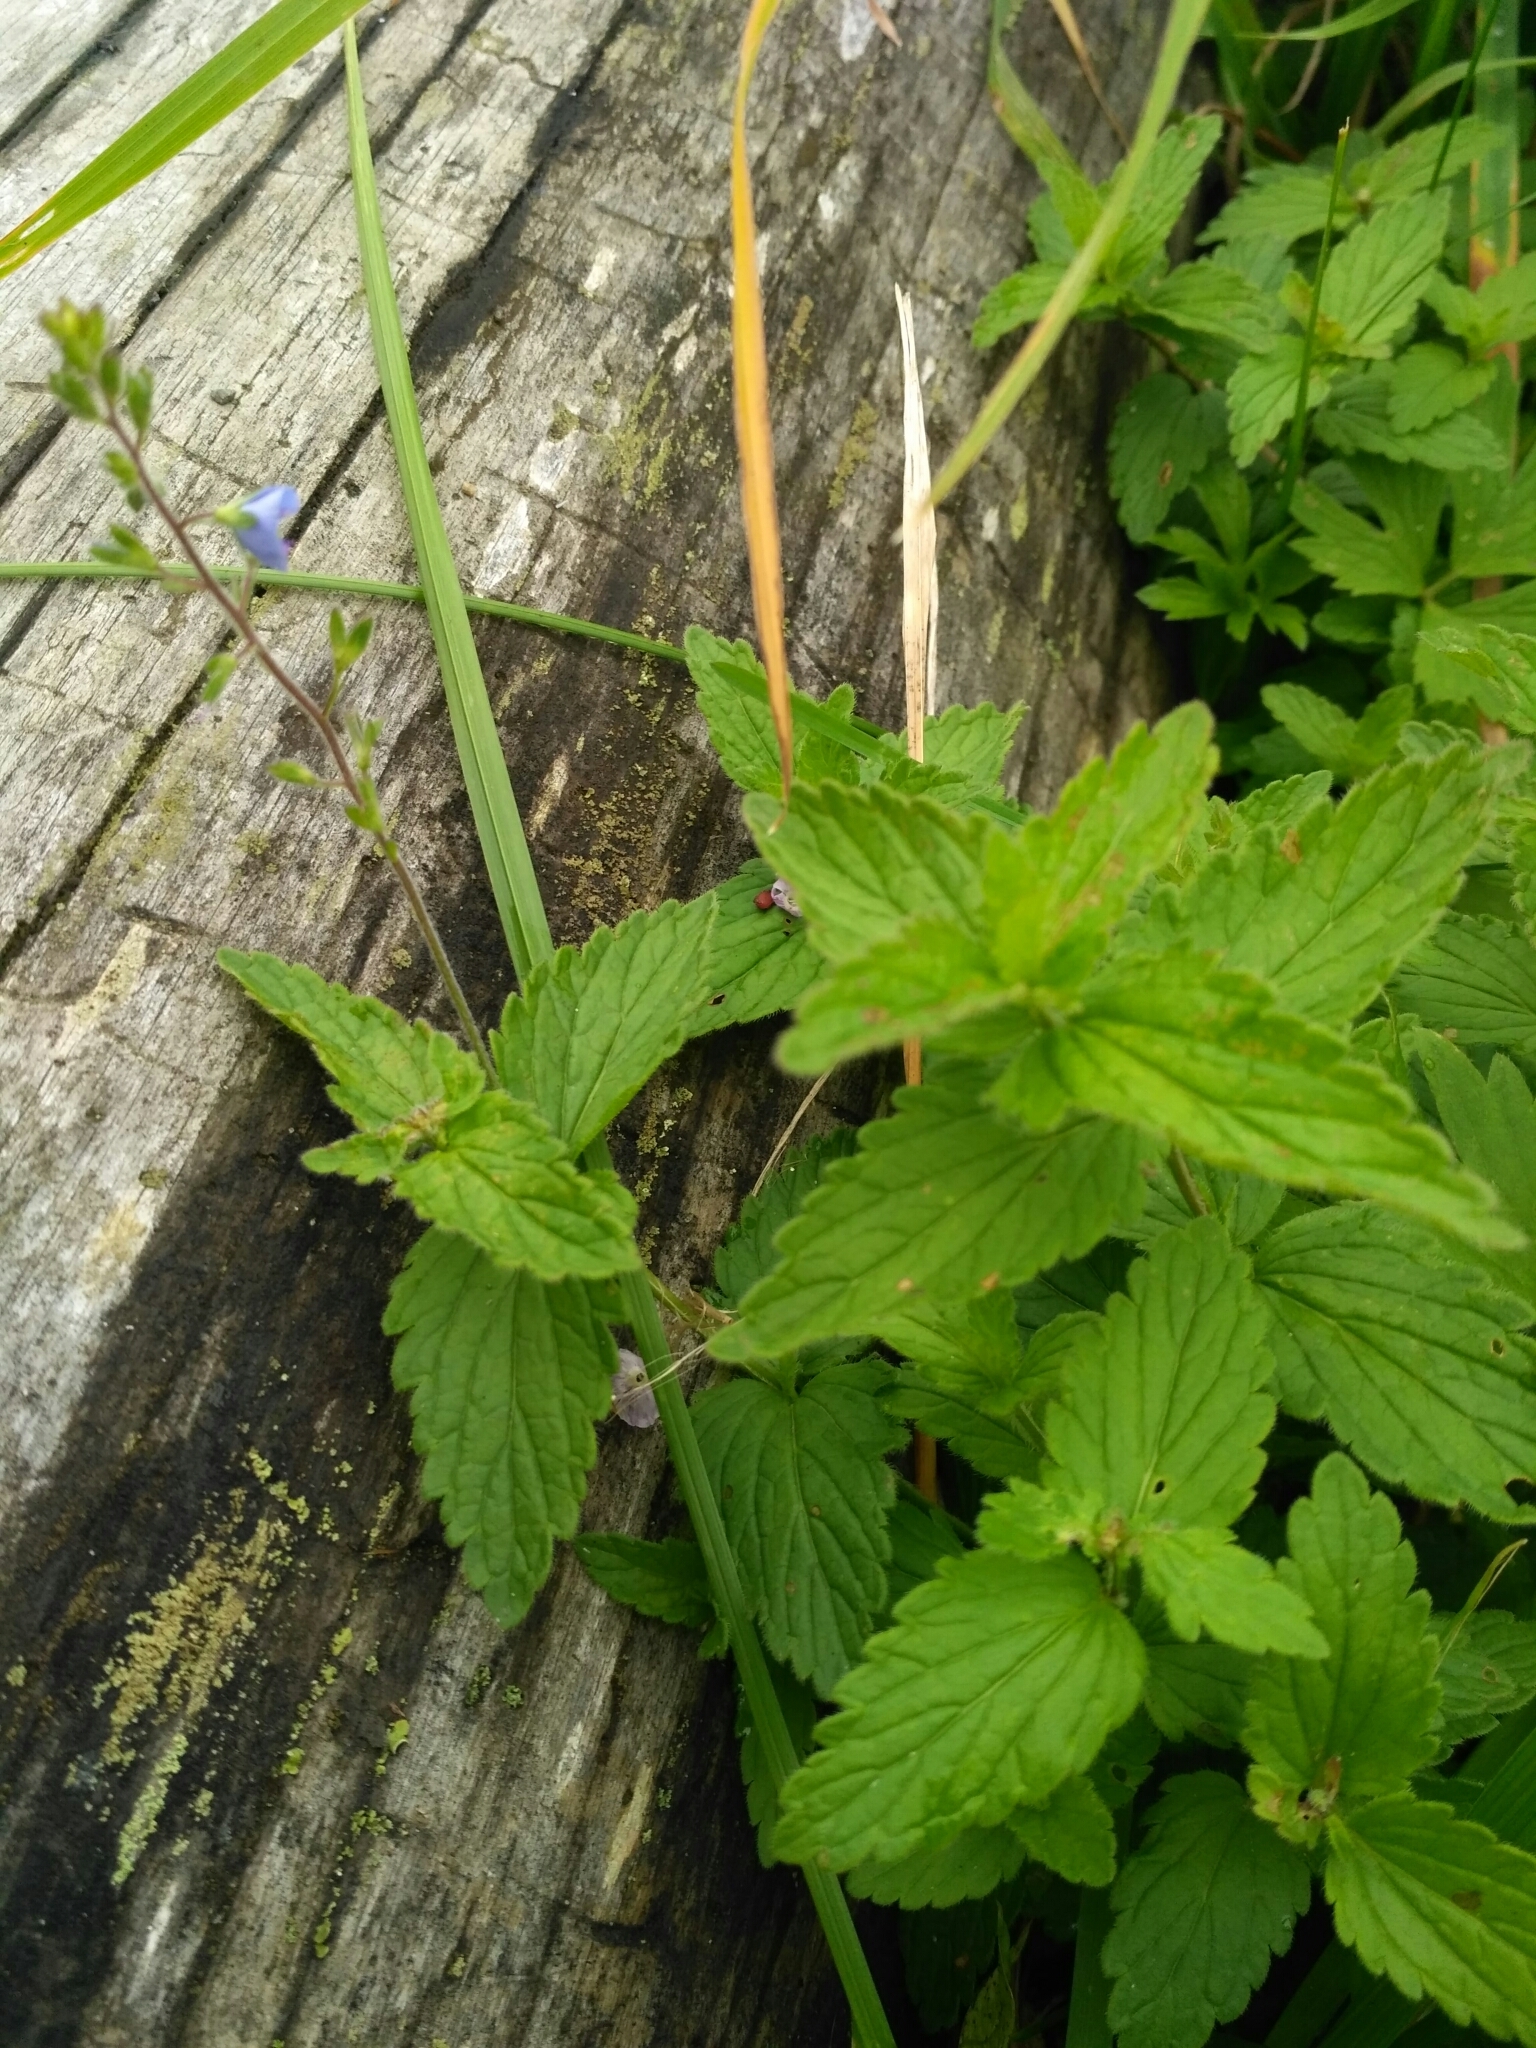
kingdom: Plantae
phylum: Tracheophyta
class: Magnoliopsida
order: Lamiales
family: Plantaginaceae
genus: Veronica
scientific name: Veronica chamaedrys
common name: Germander speedwell
